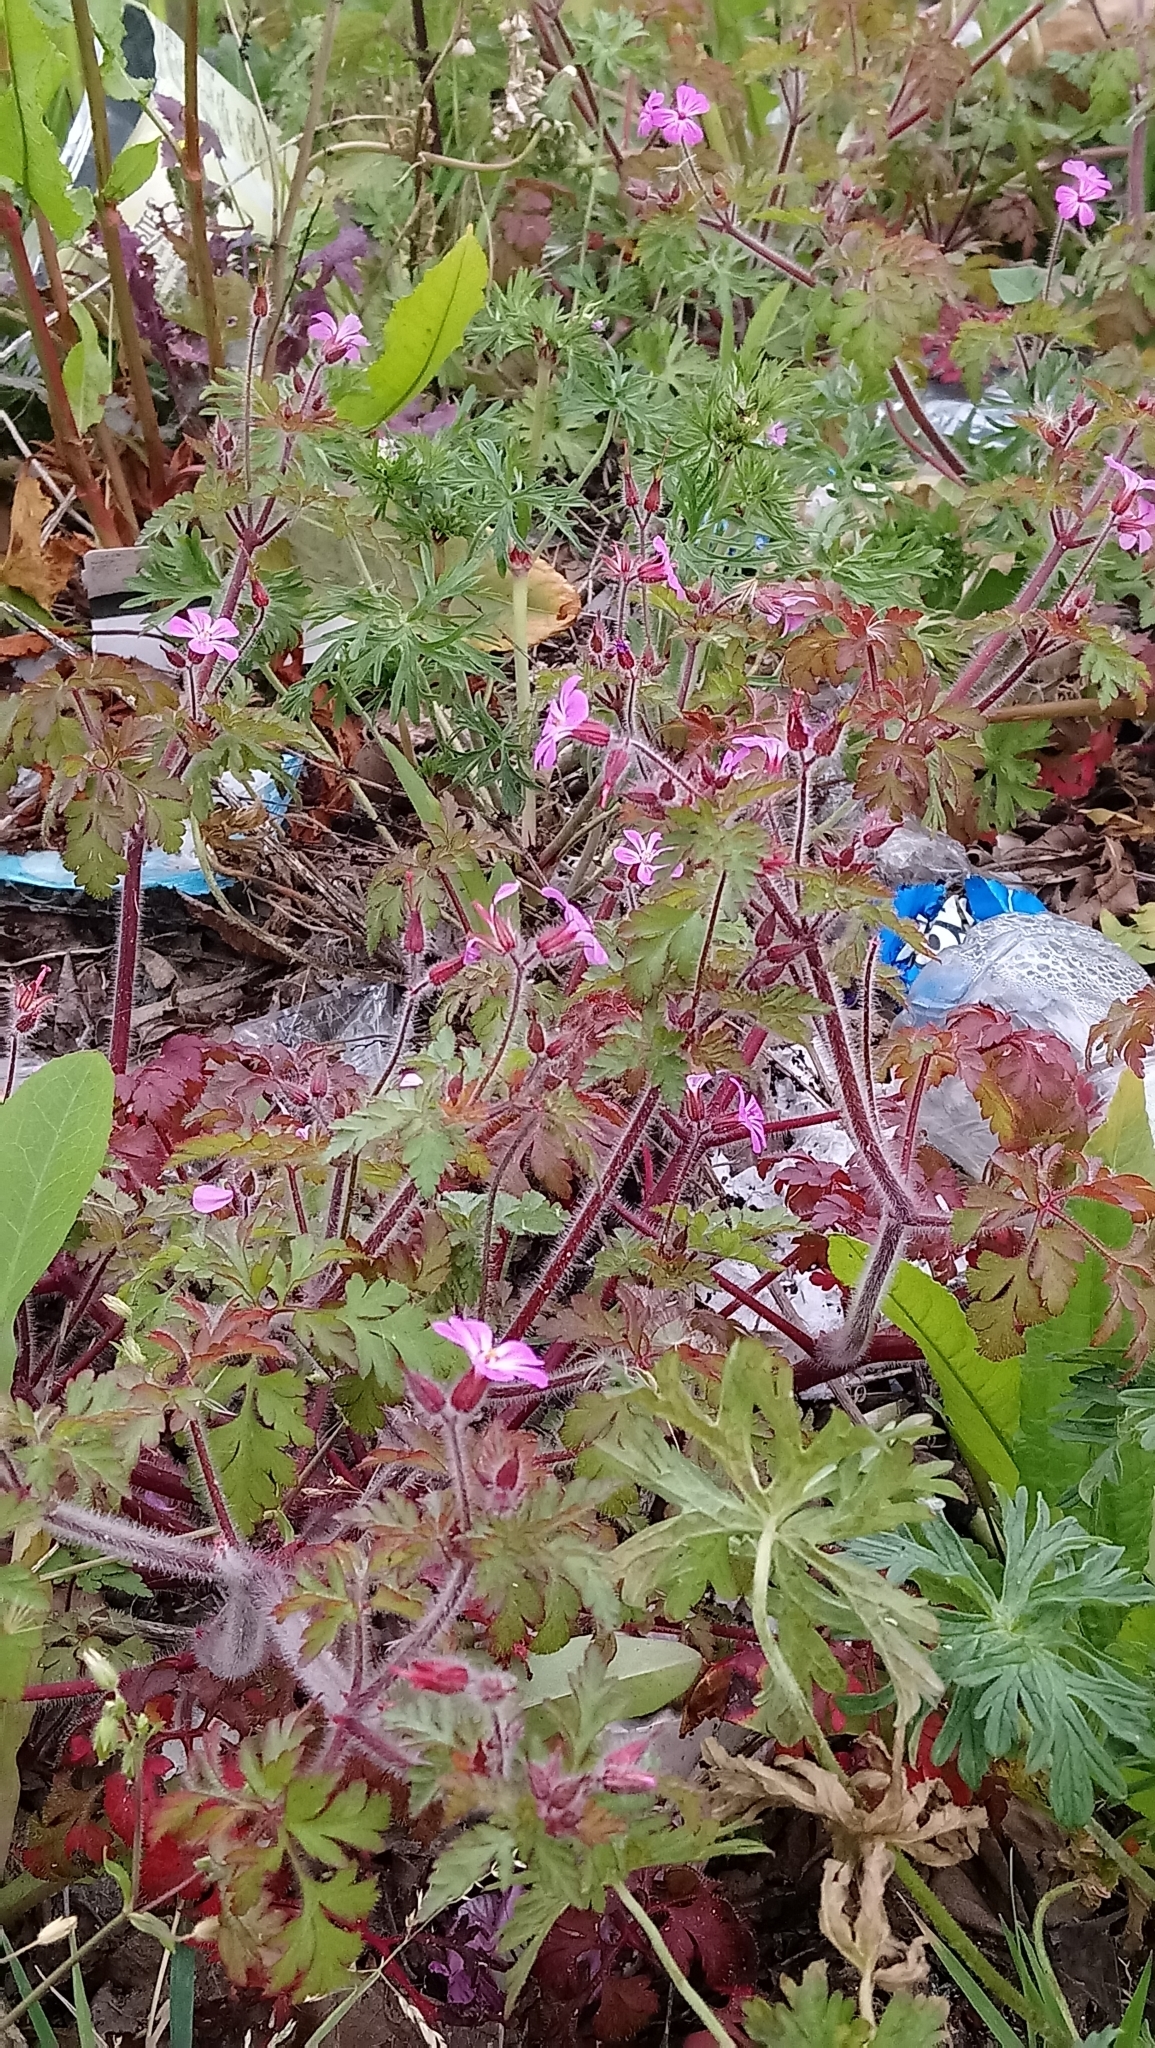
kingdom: Plantae
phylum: Tracheophyta
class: Magnoliopsida
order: Geraniales
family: Geraniaceae
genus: Geranium
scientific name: Geranium robertianum
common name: Herb-robert
